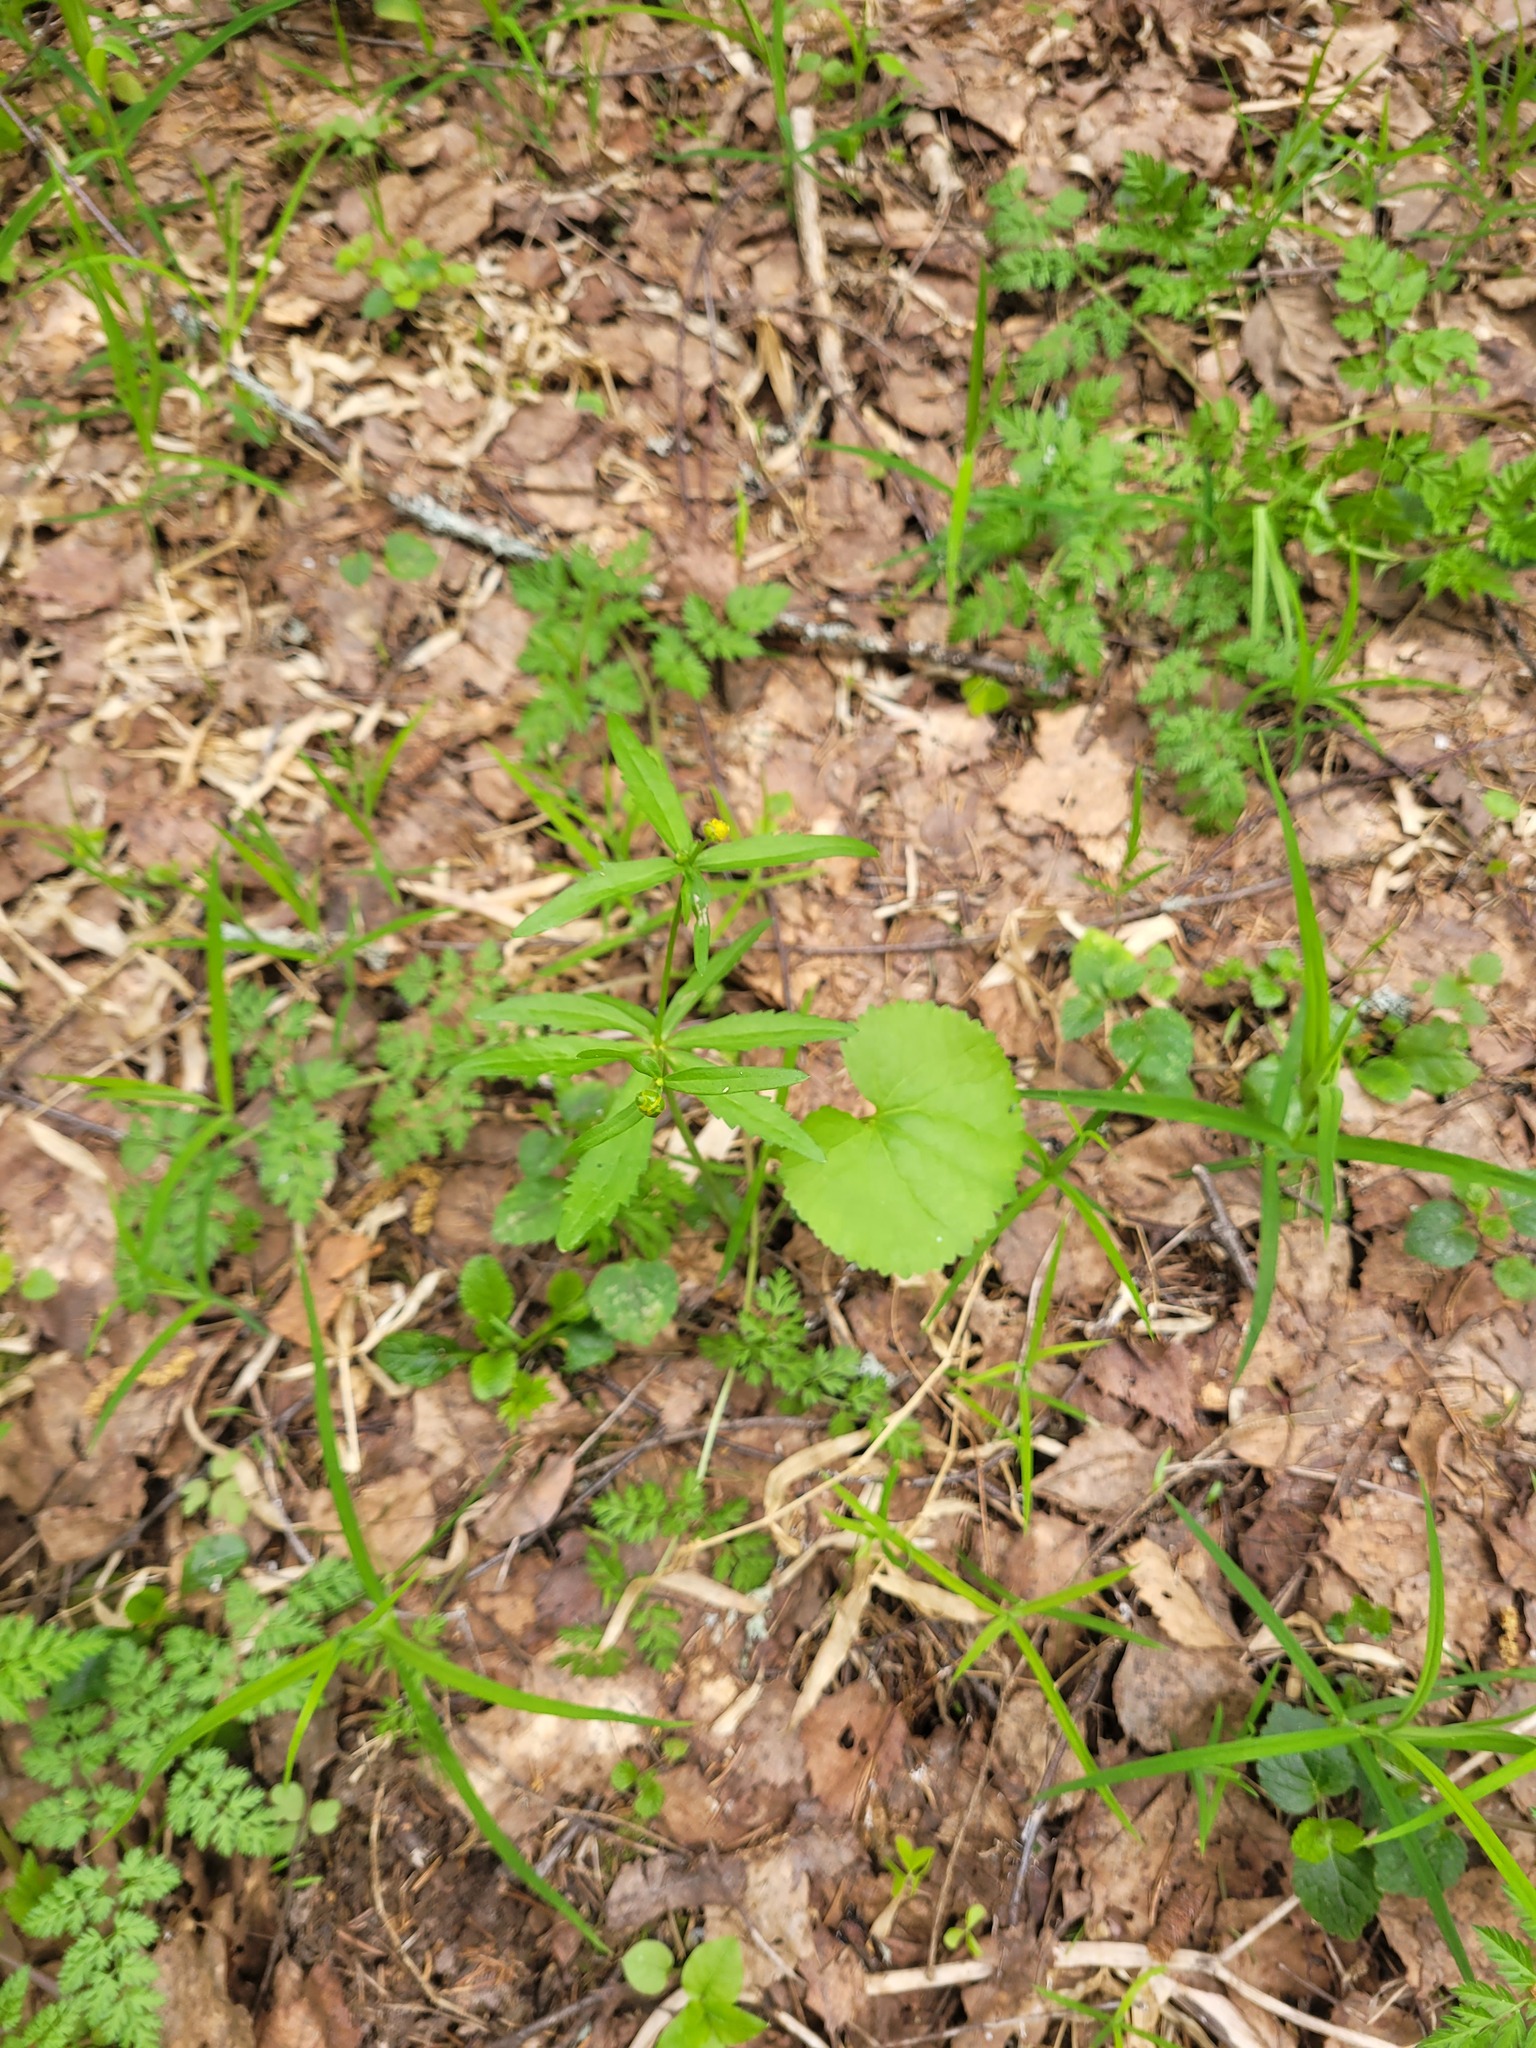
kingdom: Plantae
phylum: Tracheophyta
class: Magnoliopsida
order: Ranunculales
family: Ranunculaceae
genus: Ranunculus
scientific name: Ranunculus cassubicus
